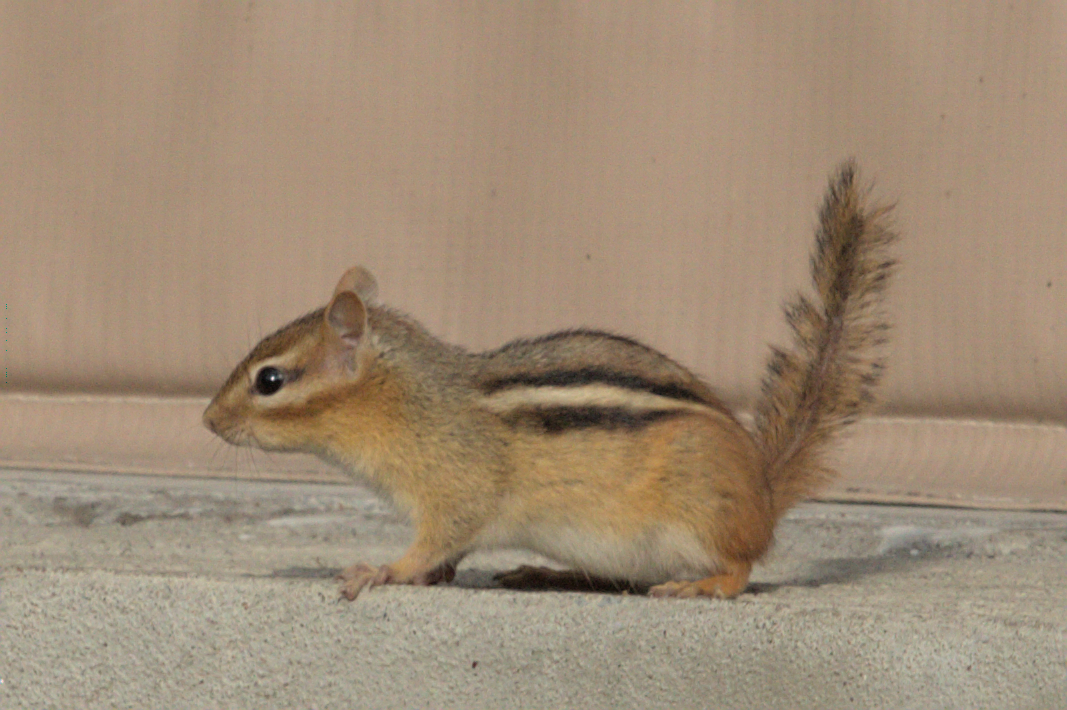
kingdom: Animalia
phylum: Chordata
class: Mammalia
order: Rodentia
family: Sciuridae
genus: Tamias
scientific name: Tamias striatus
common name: Eastern chipmunk
